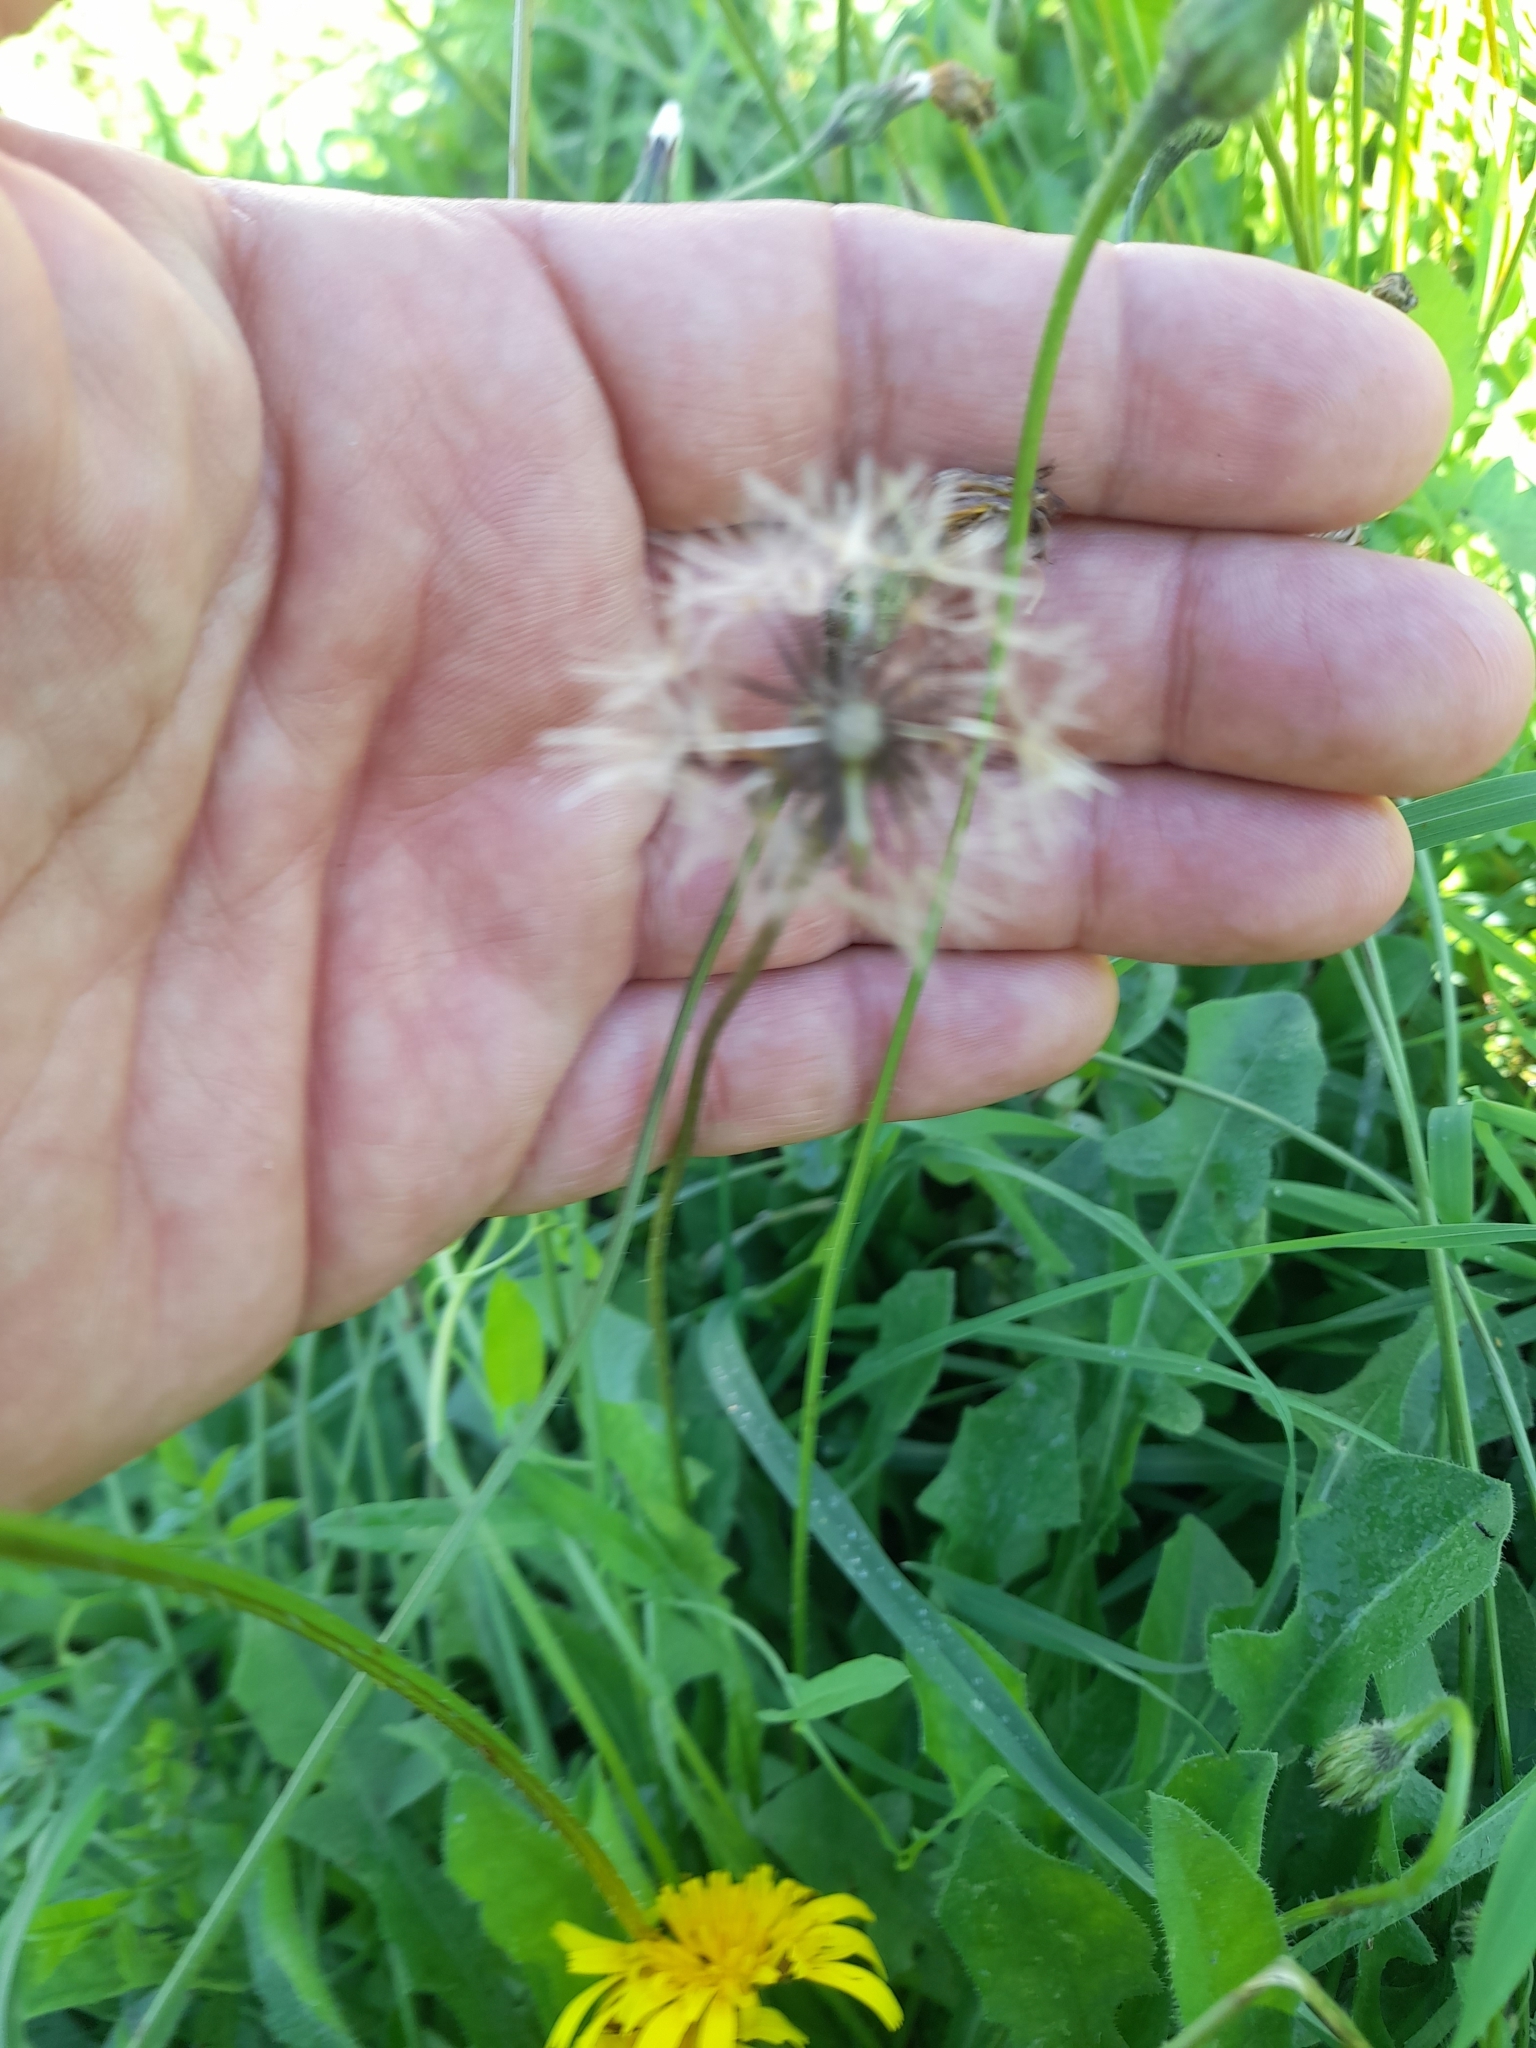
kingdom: Plantae
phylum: Tracheophyta
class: Magnoliopsida
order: Asterales
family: Asteraceae
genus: Leontodon
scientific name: Leontodon tuberosus
